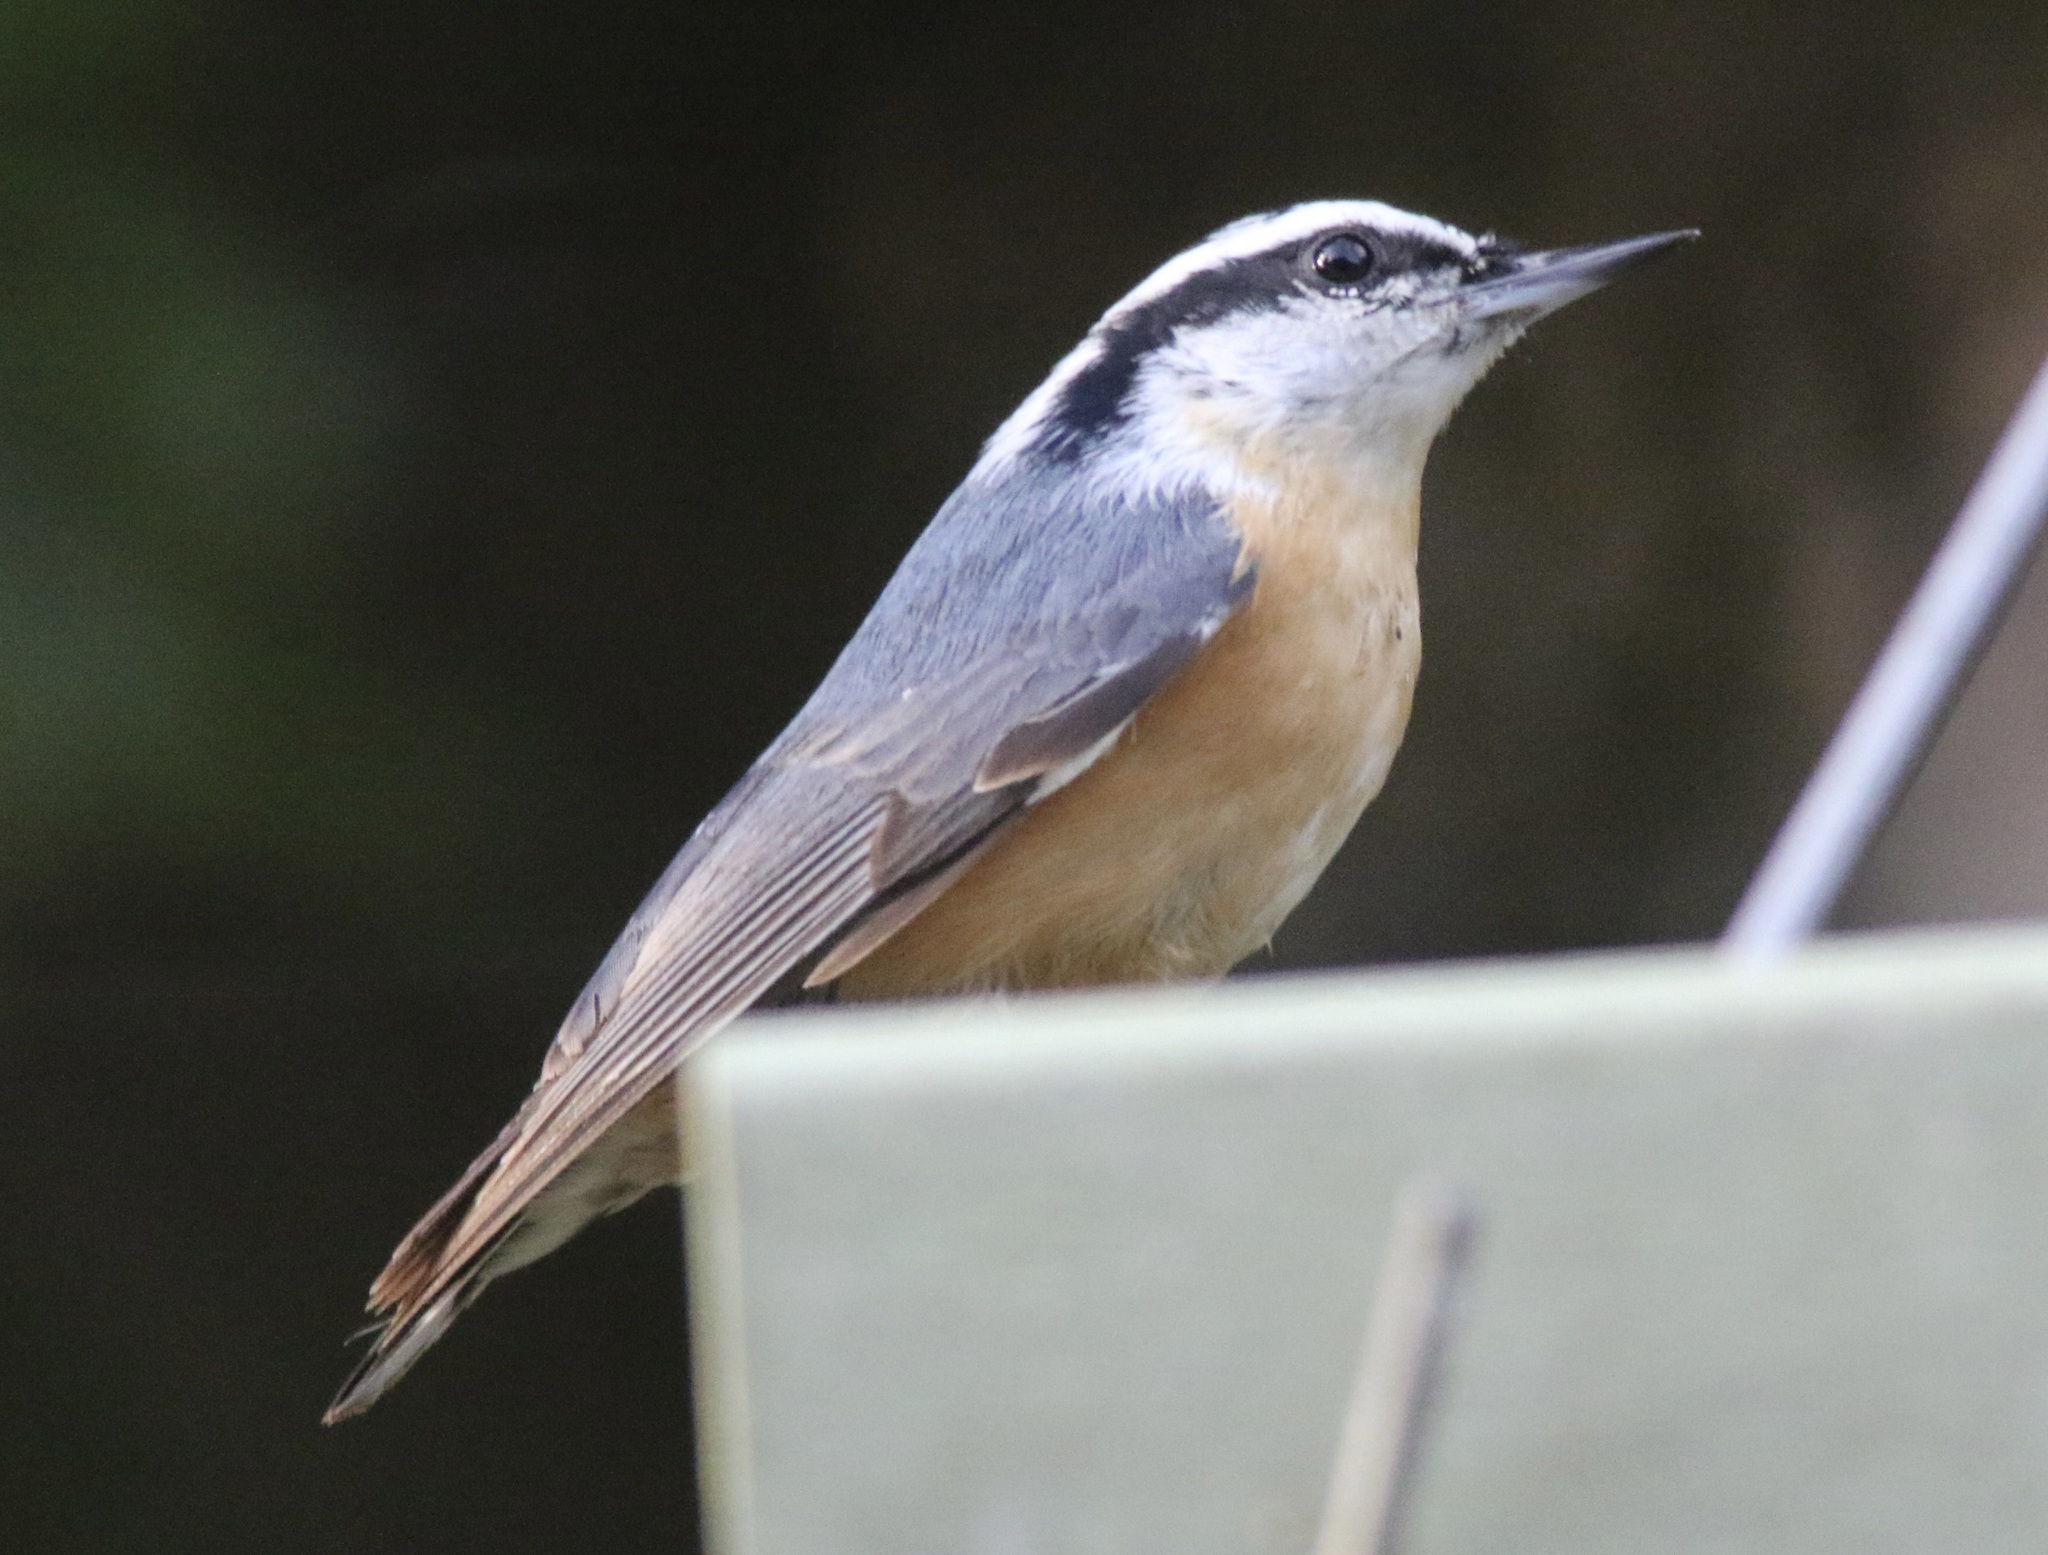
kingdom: Animalia
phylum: Chordata
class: Aves
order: Passeriformes
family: Sittidae
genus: Sitta
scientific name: Sitta canadensis
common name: Red-breasted nuthatch
